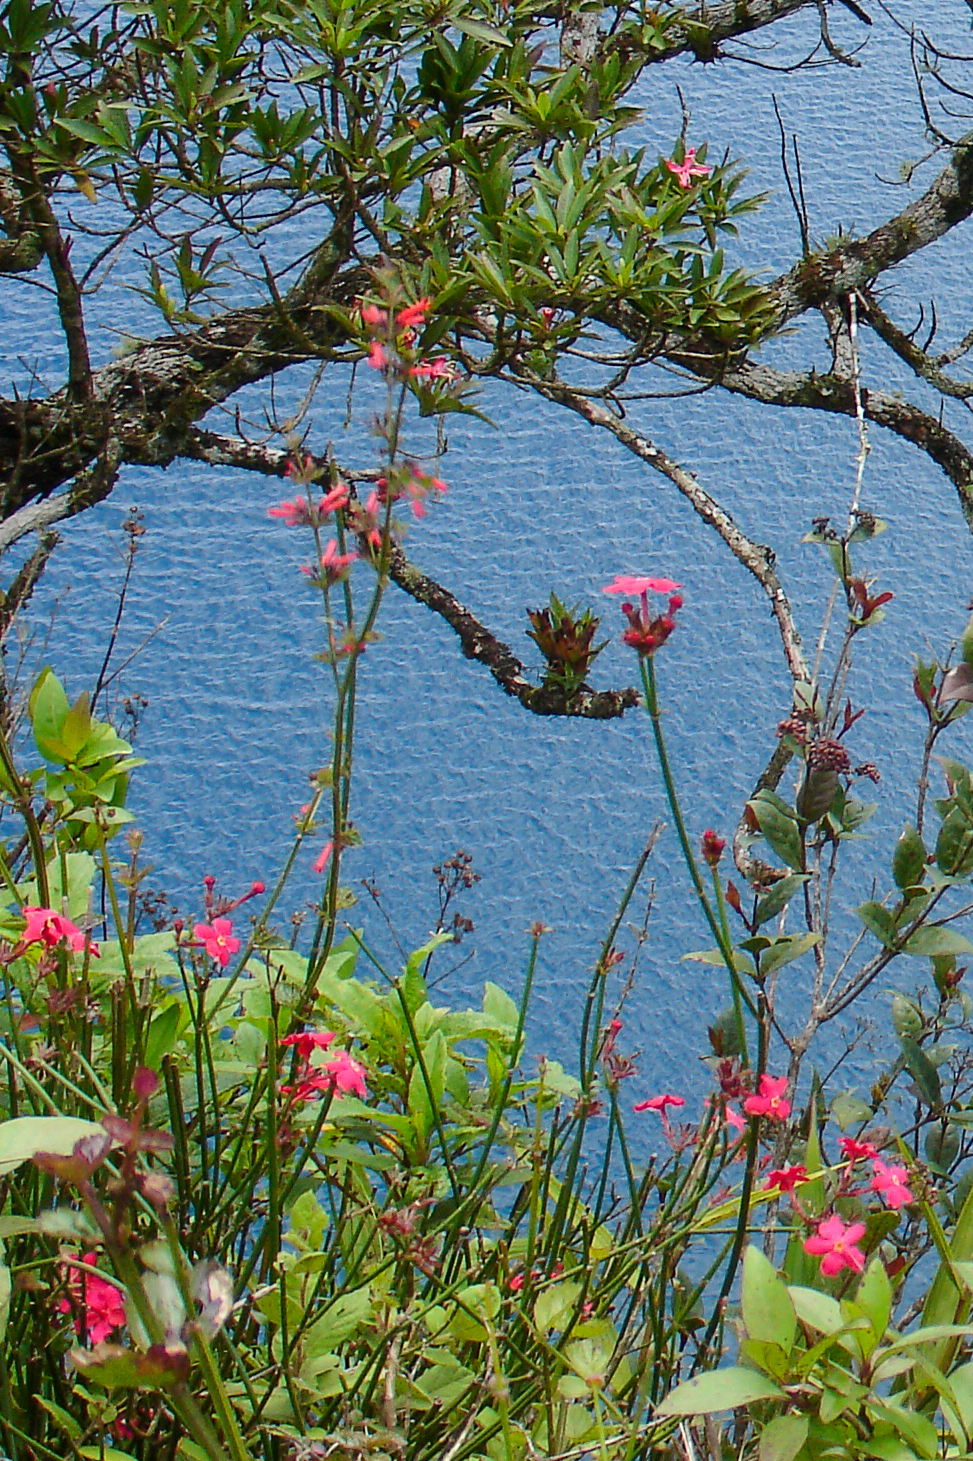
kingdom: Plantae
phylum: Tracheophyta
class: Magnoliopsida
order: Gentianales
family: Rubiaceae
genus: Rovaeanthus
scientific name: Rovaeanthus strigosus
